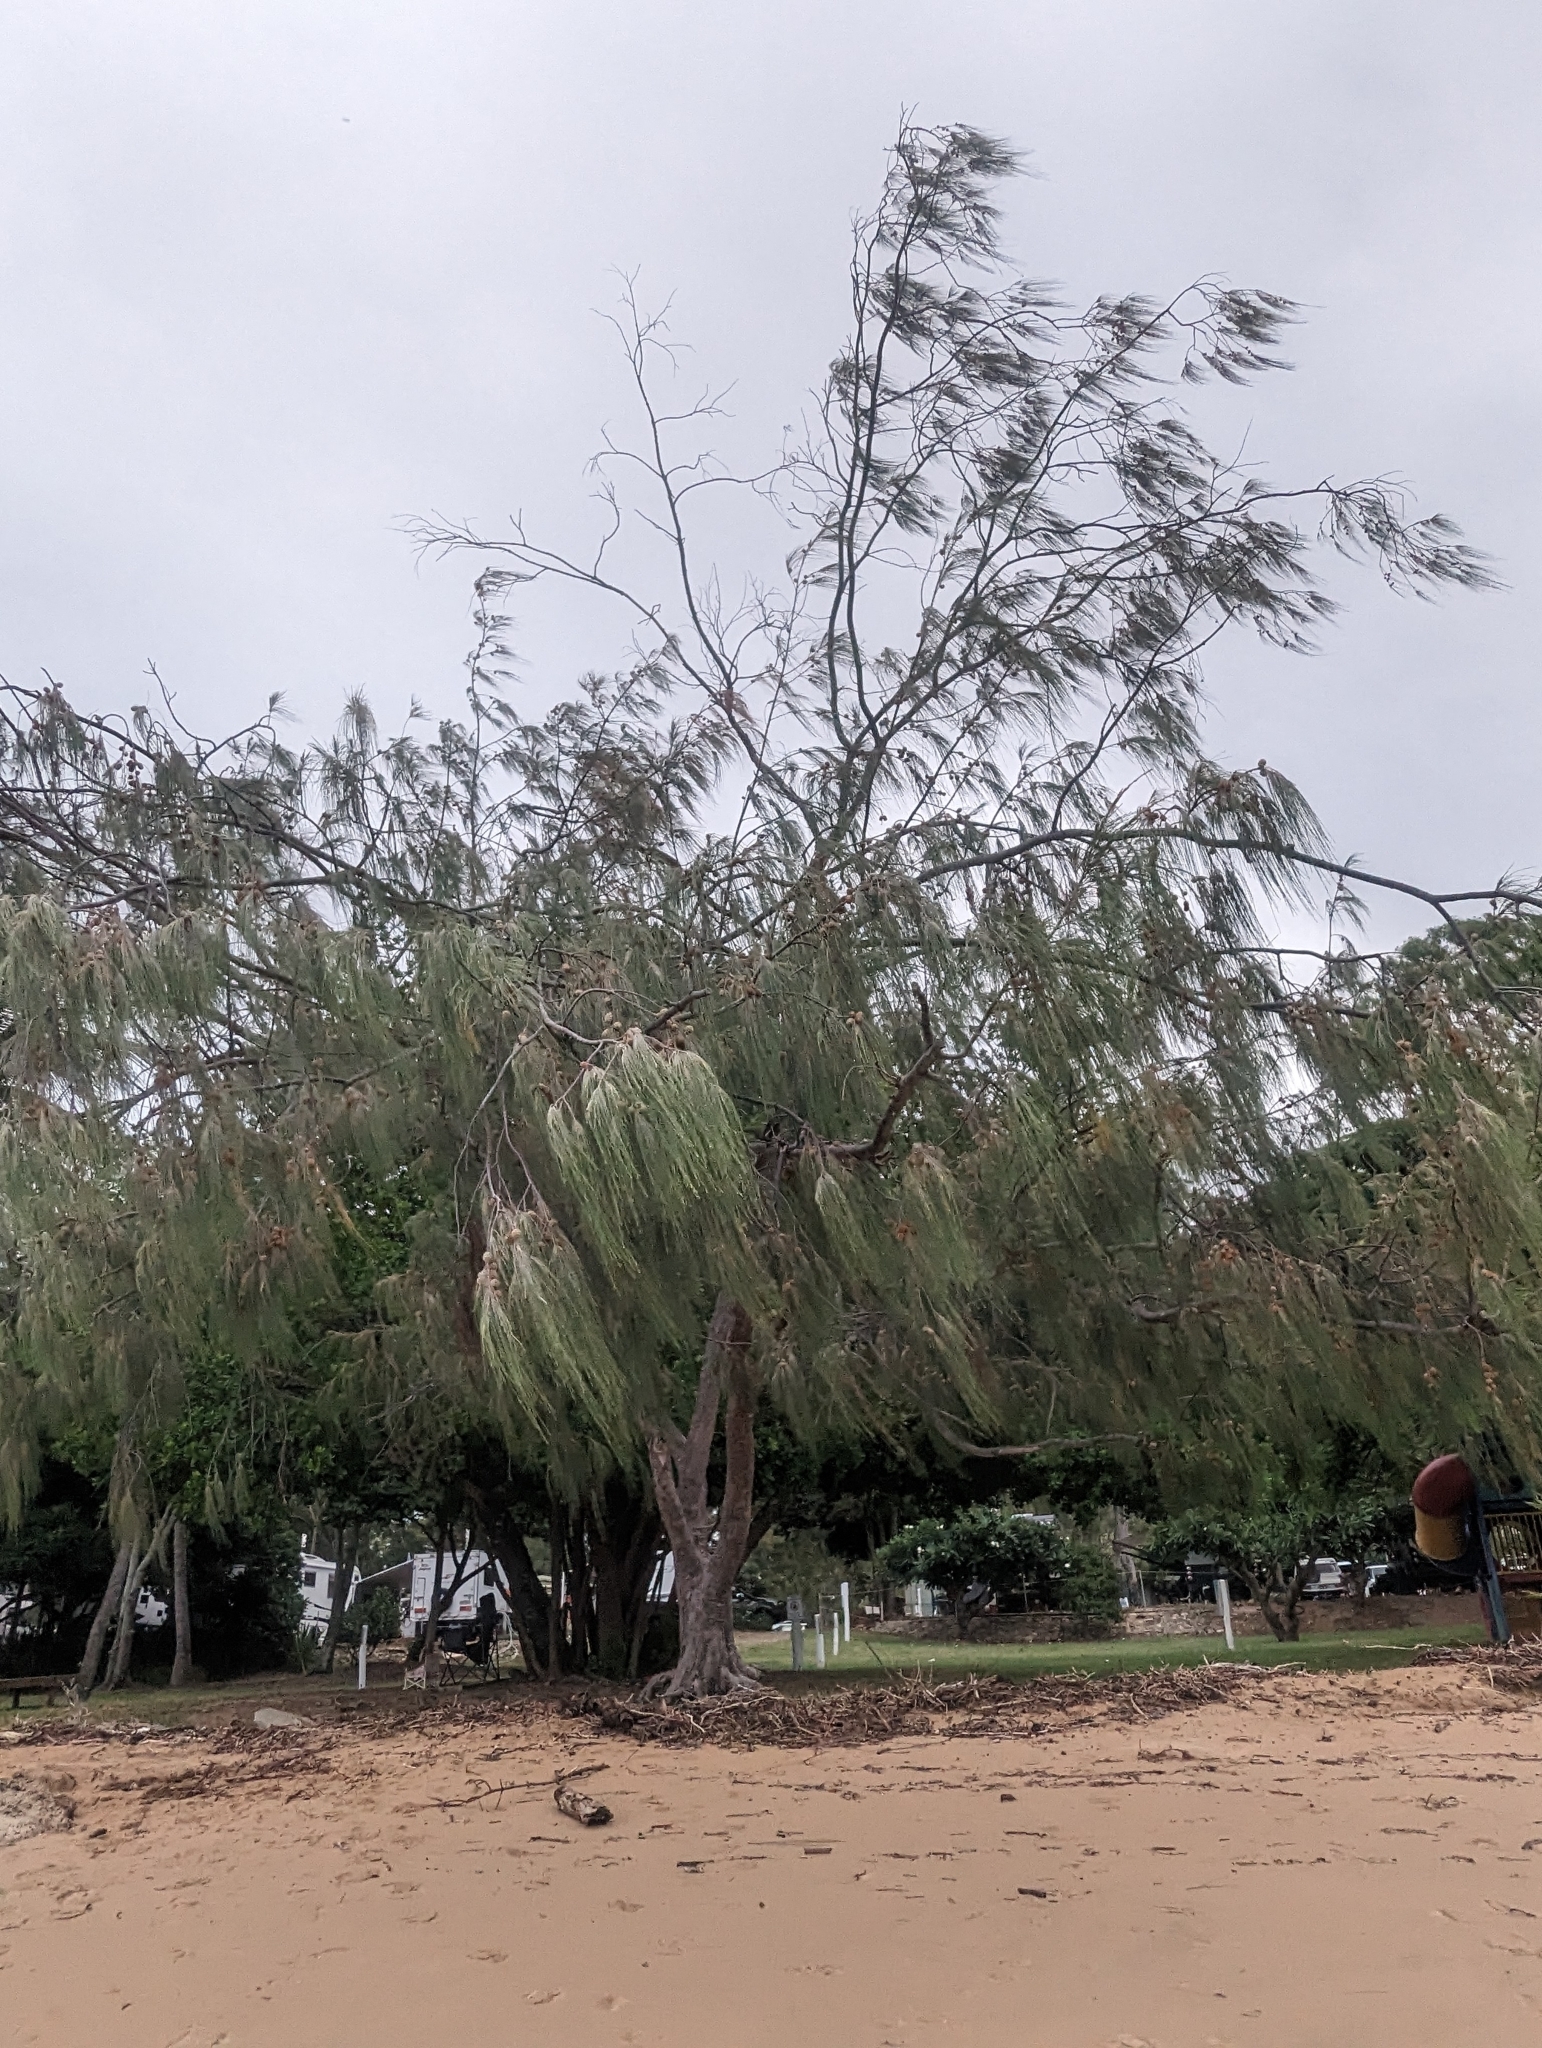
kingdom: Plantae
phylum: Tracheophyta
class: Magnoliopsida
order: Fagales
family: Casuarinaceae
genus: Casuarina
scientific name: Casuarina equisetifolia
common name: Beach sheoak
